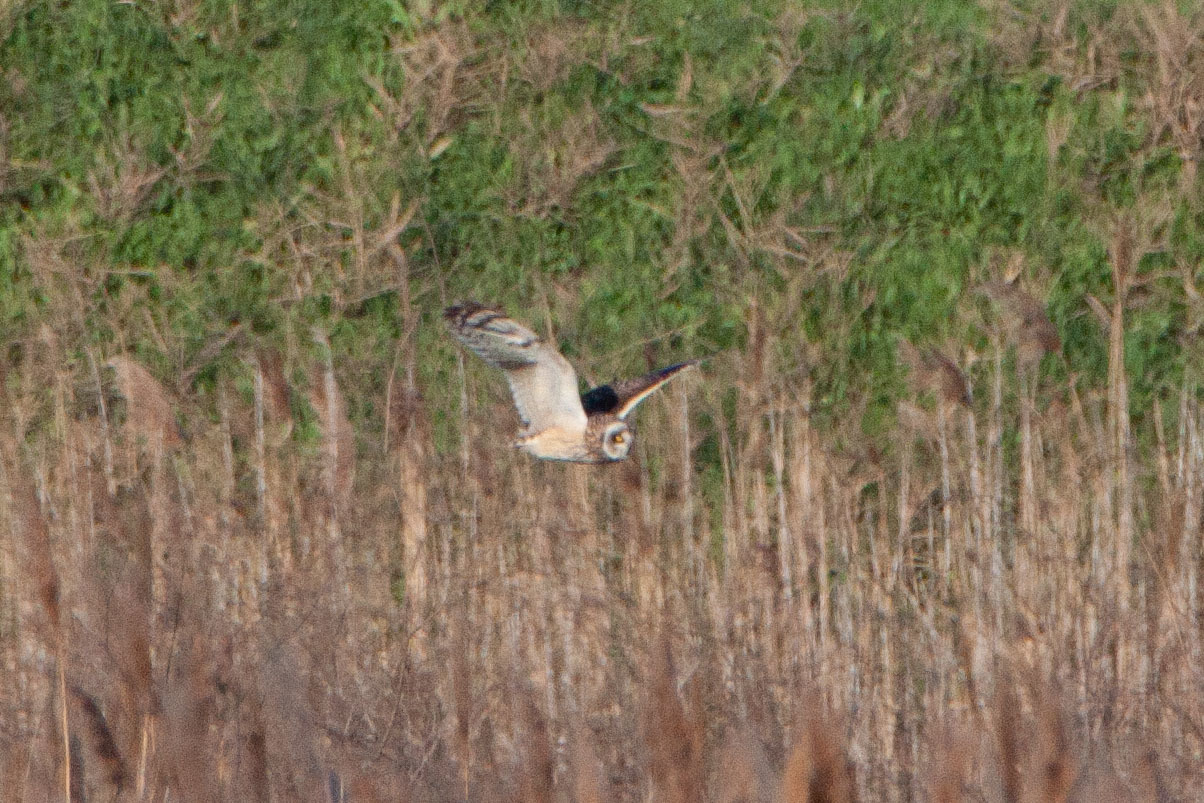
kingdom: Animalia
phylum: Chordata
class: Aves
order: Strigiformes
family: Strigidae
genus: Asio
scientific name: Asio flammeus
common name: Short-eared owl
